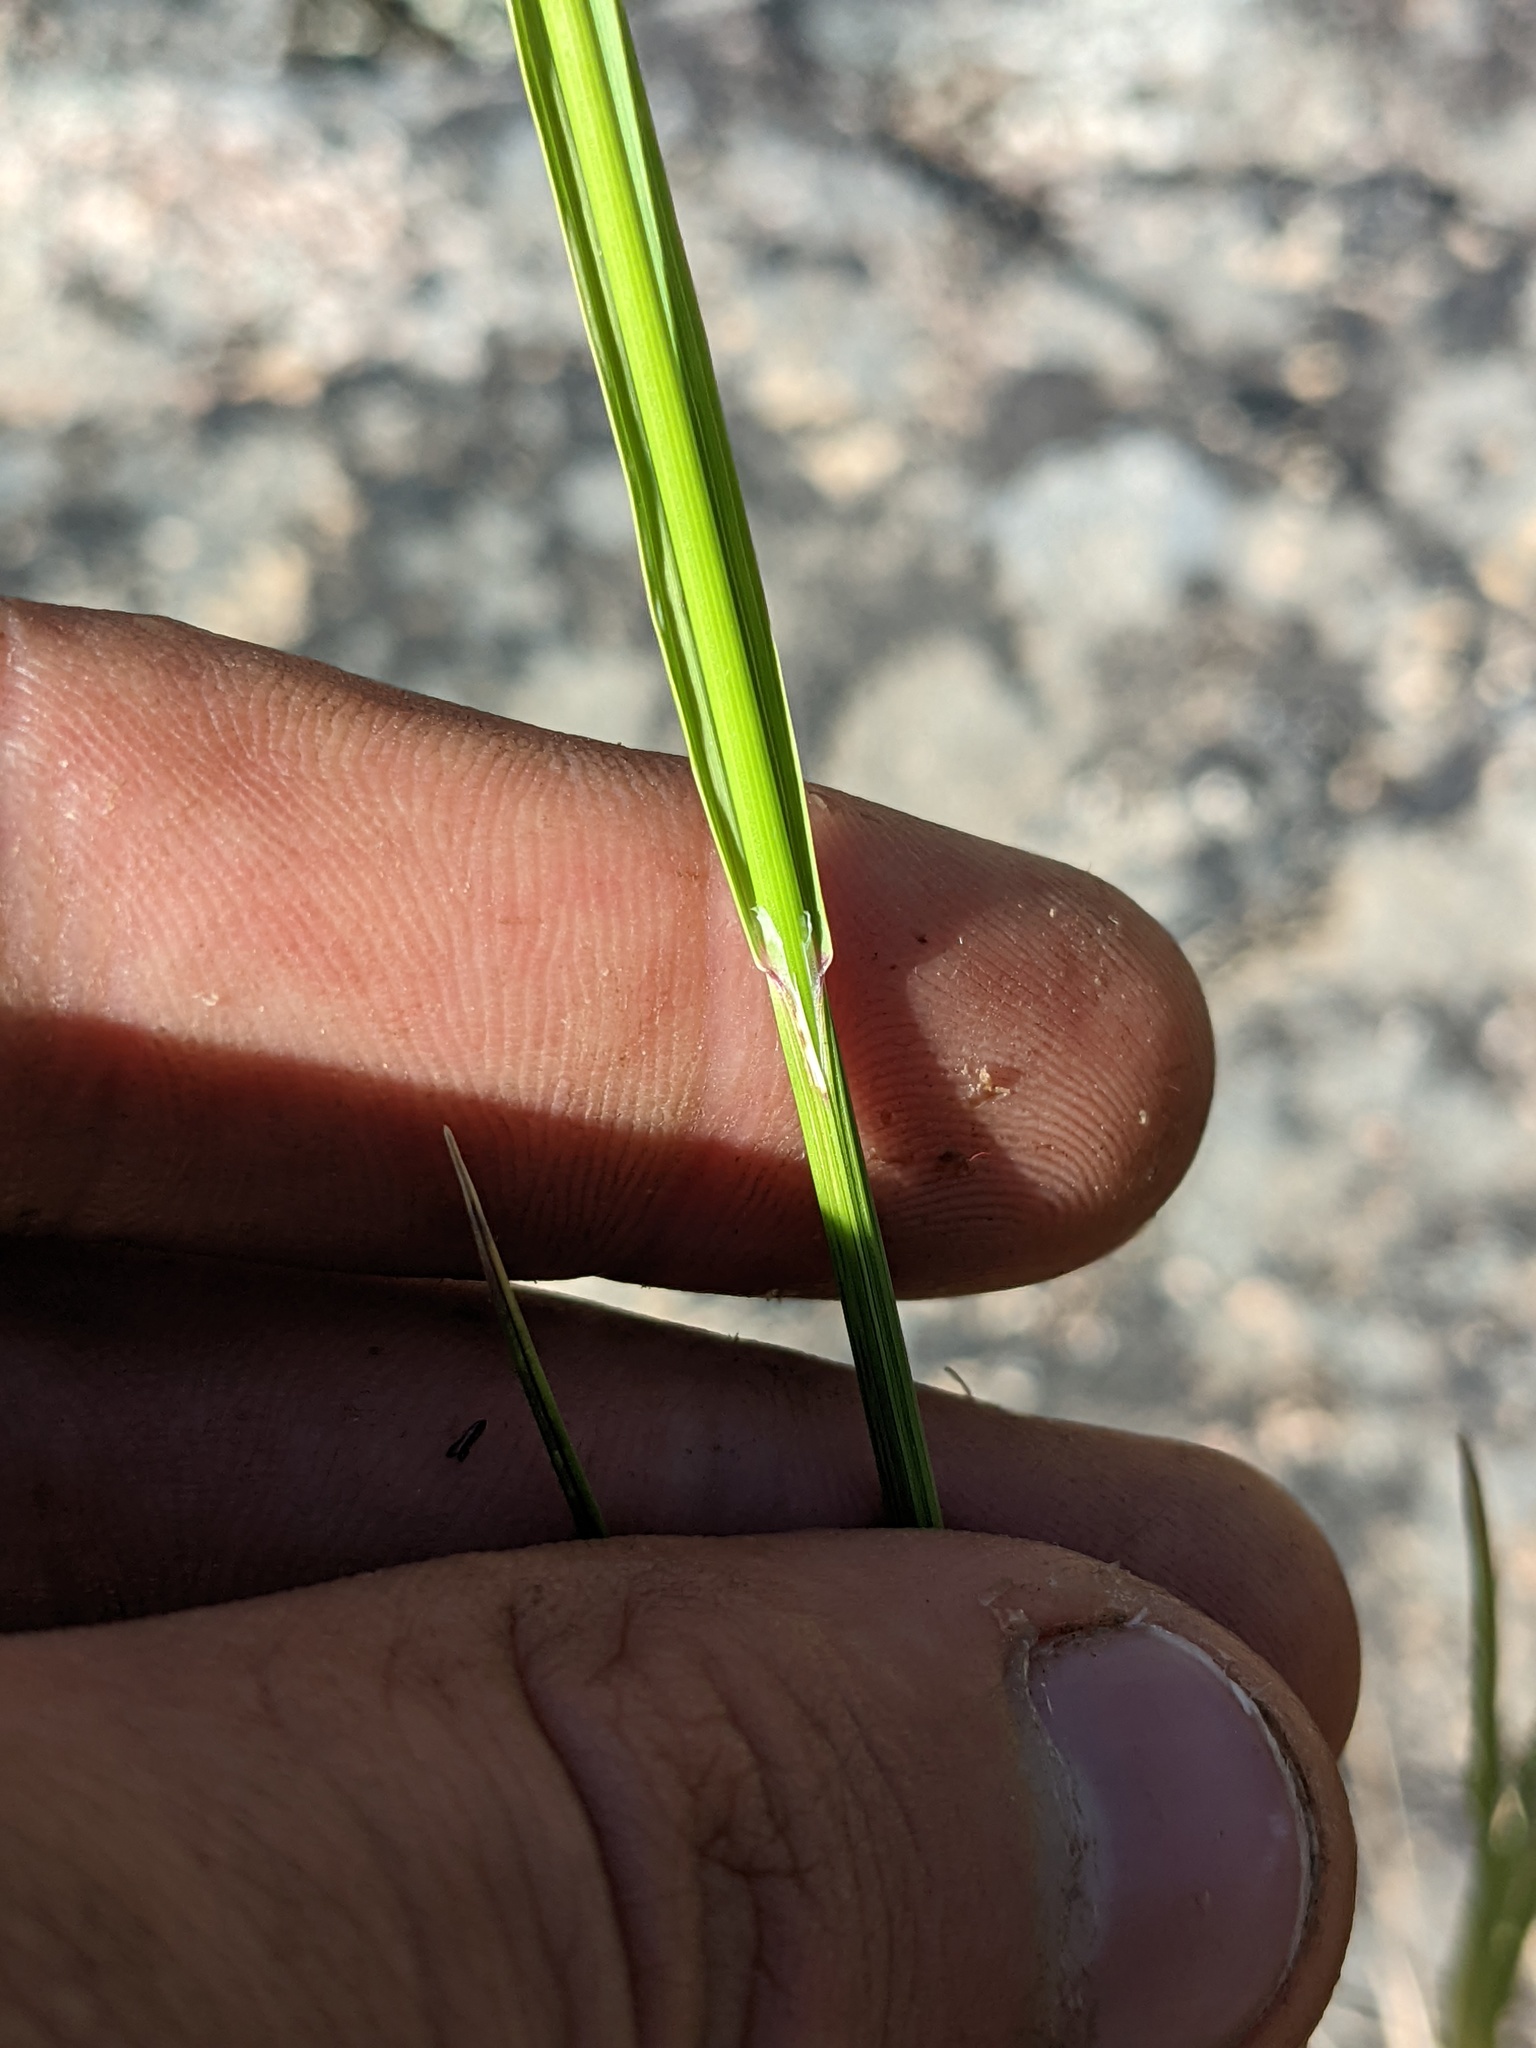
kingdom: Plantae
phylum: Tracheophyta
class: Liliopsida
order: Poales
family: Poaceae
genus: Melica
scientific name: Melica californica
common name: California melic
